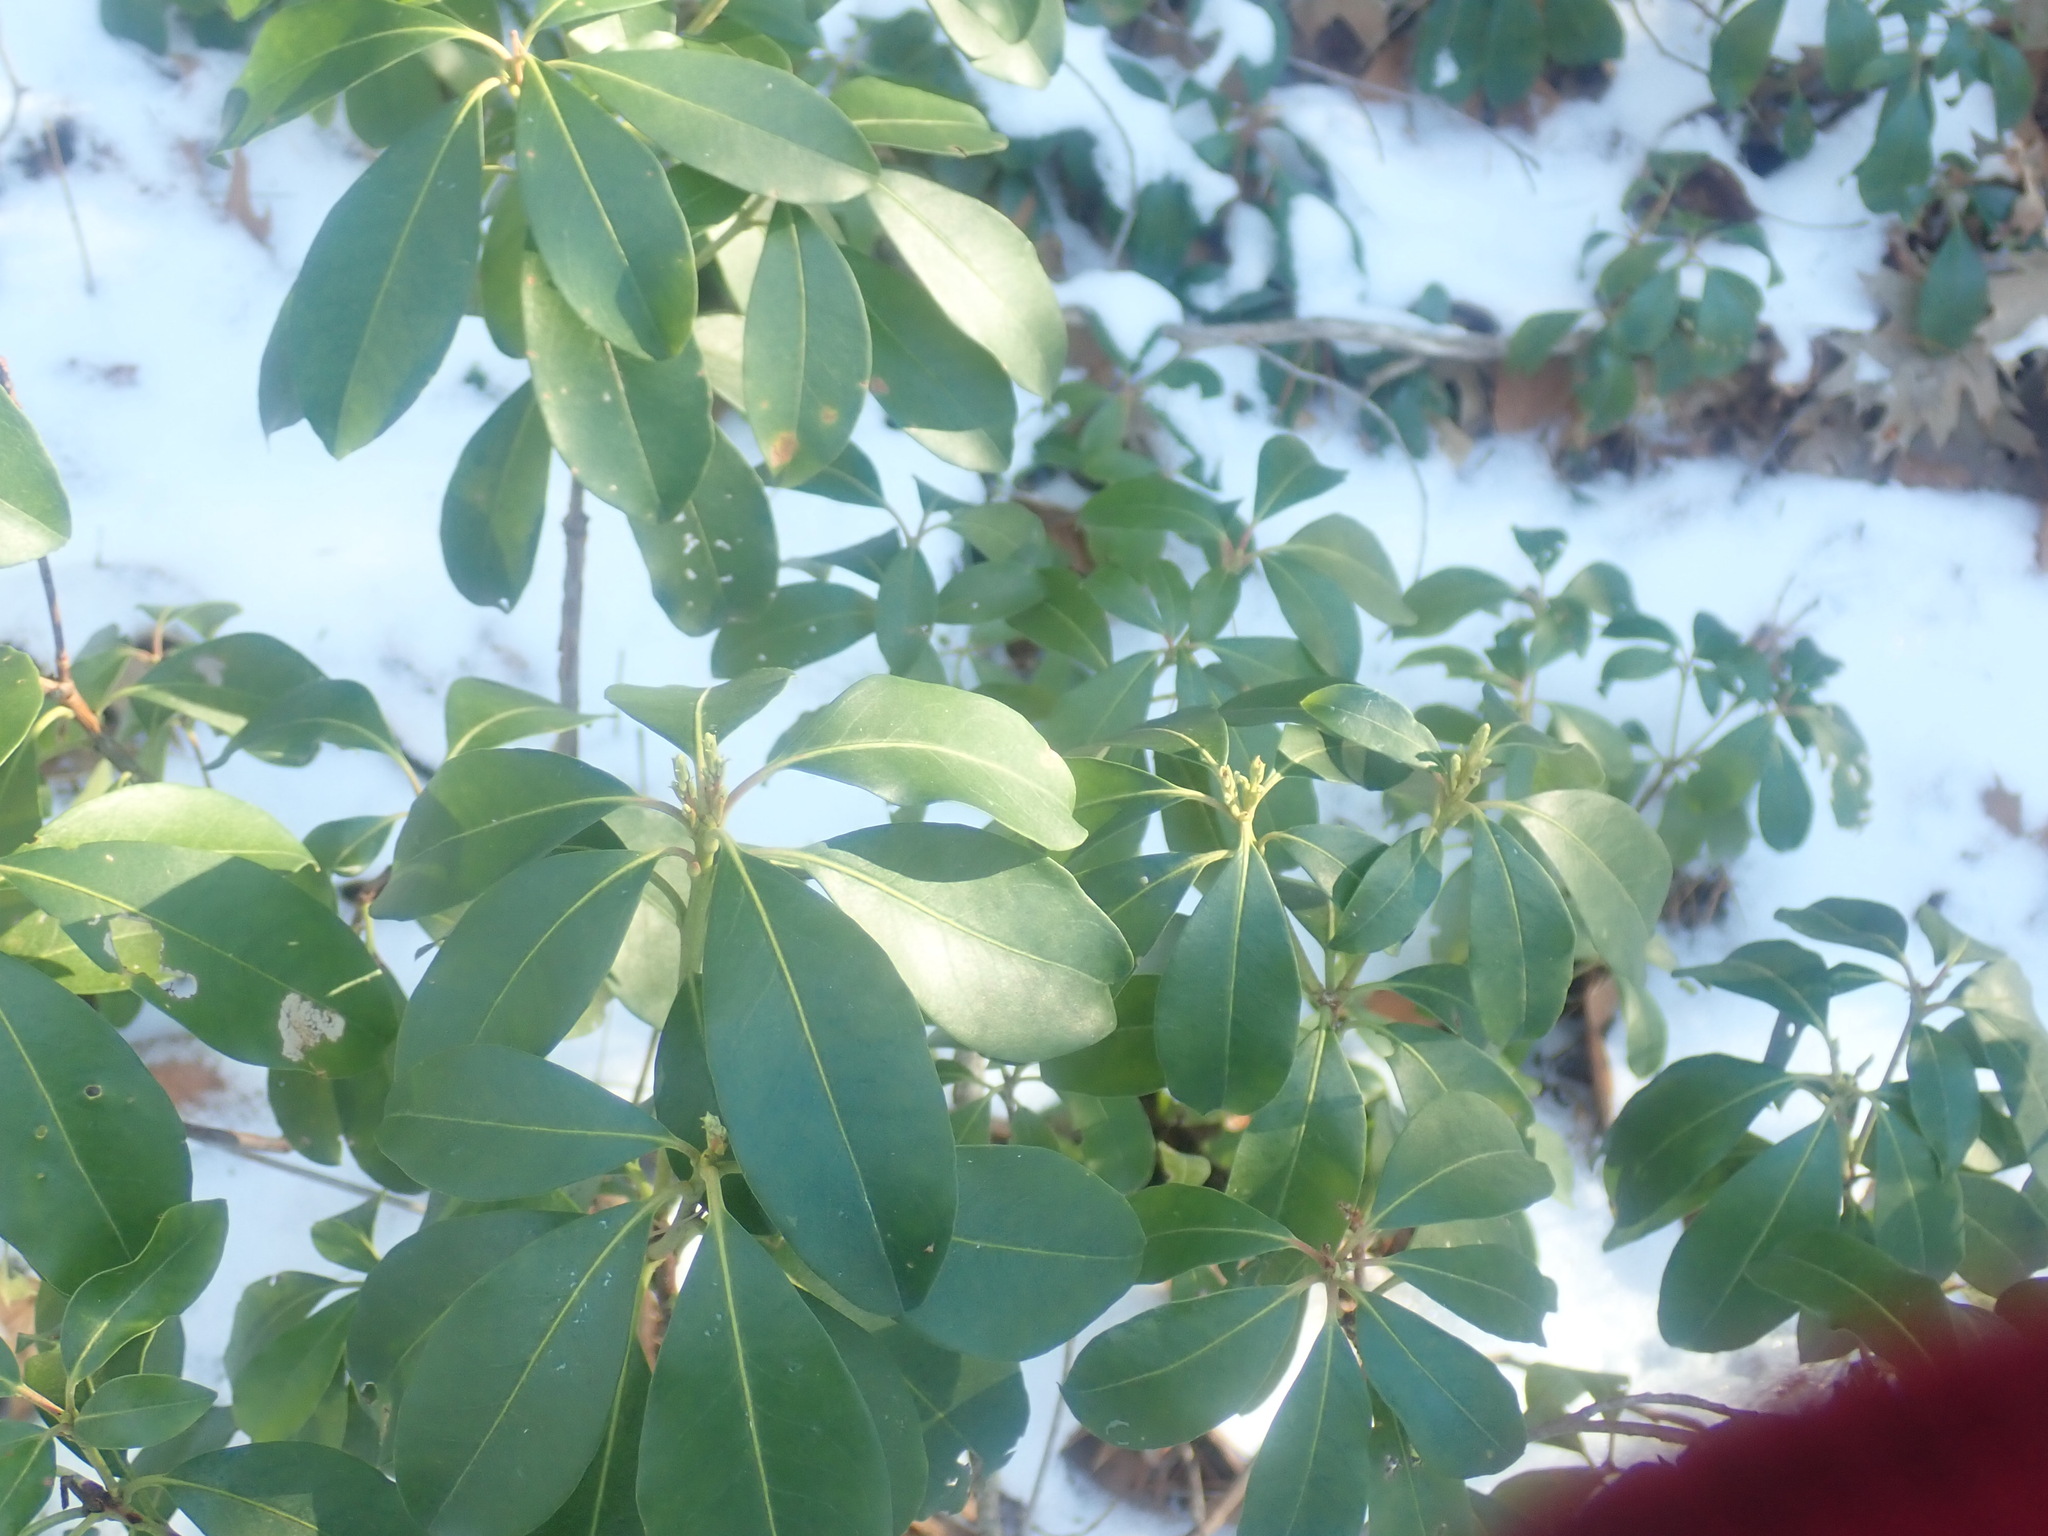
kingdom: Plantae
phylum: Tracheophyta
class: Magnoliopsida
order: Ericales
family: Ericaceae
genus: Kalmia
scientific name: Kalmia latifolia
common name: Mountain-laurel
